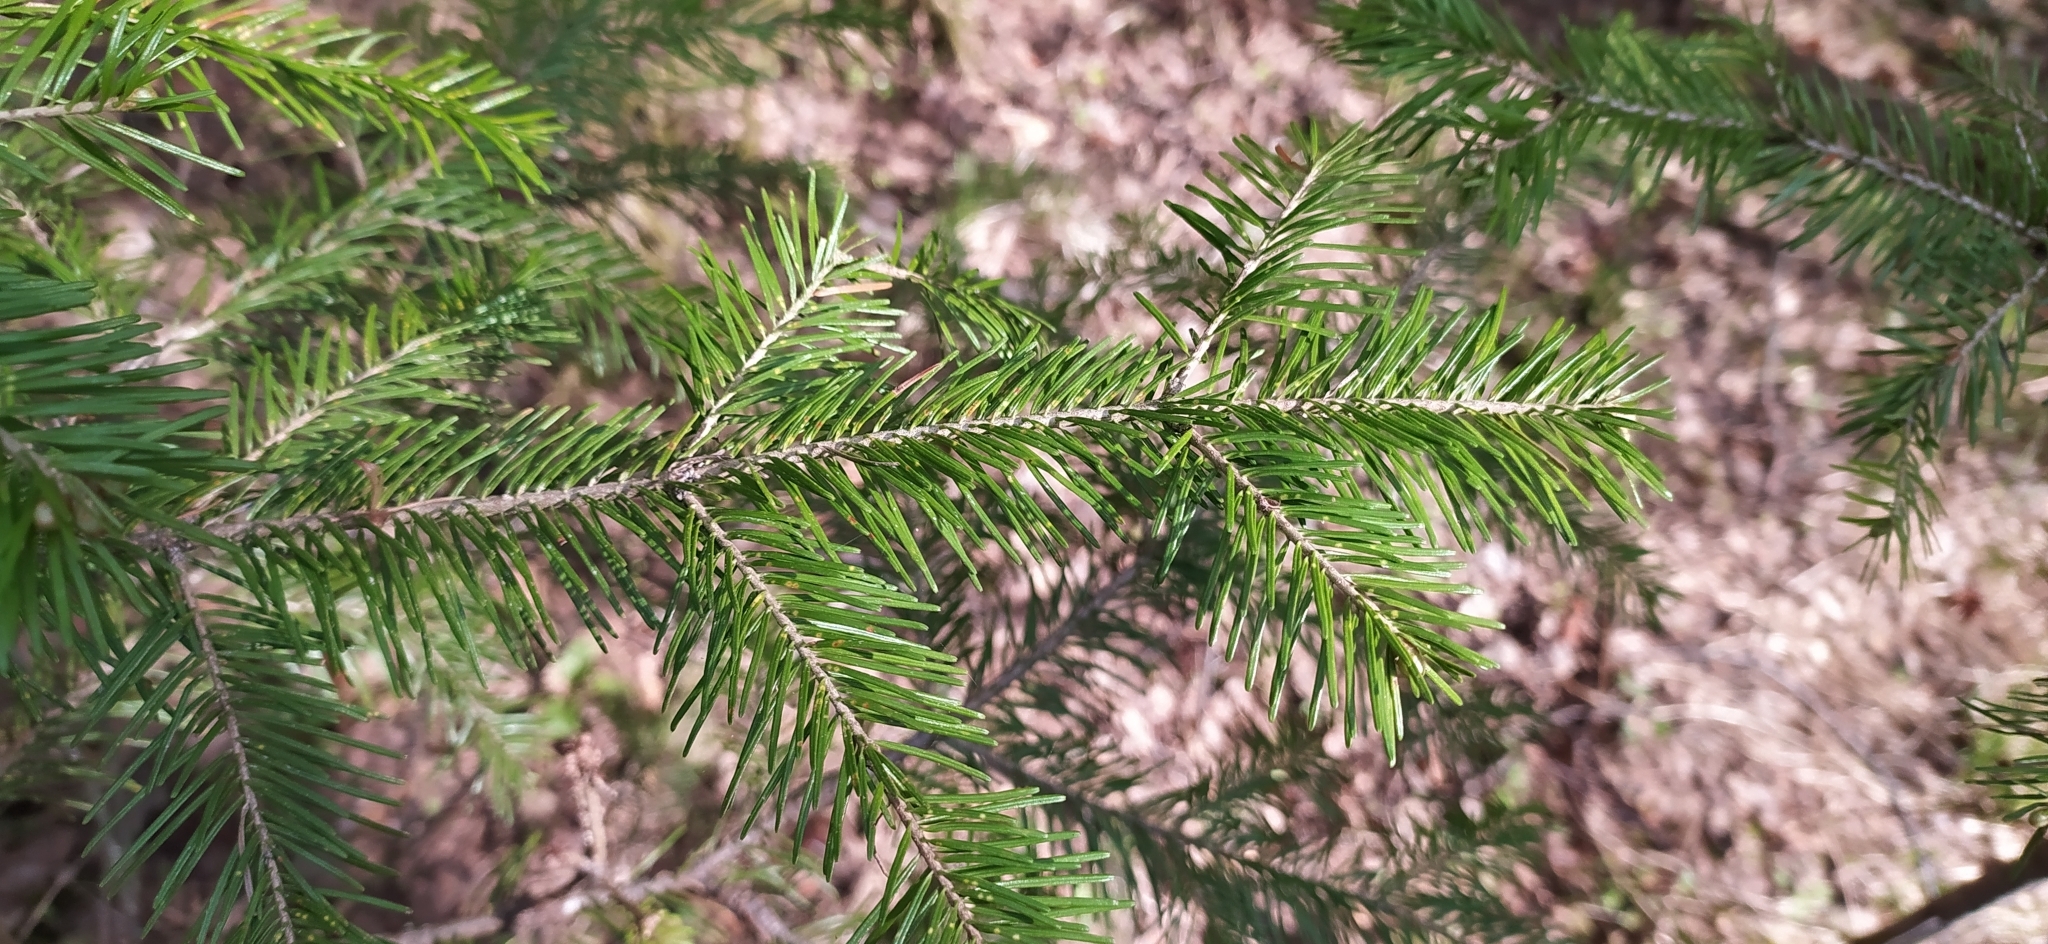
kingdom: Plantae
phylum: Tracheophyta
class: Pinopsida
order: Pinales
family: Pinaceae
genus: Abies
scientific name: Abies sibirica
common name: Siberian fir
